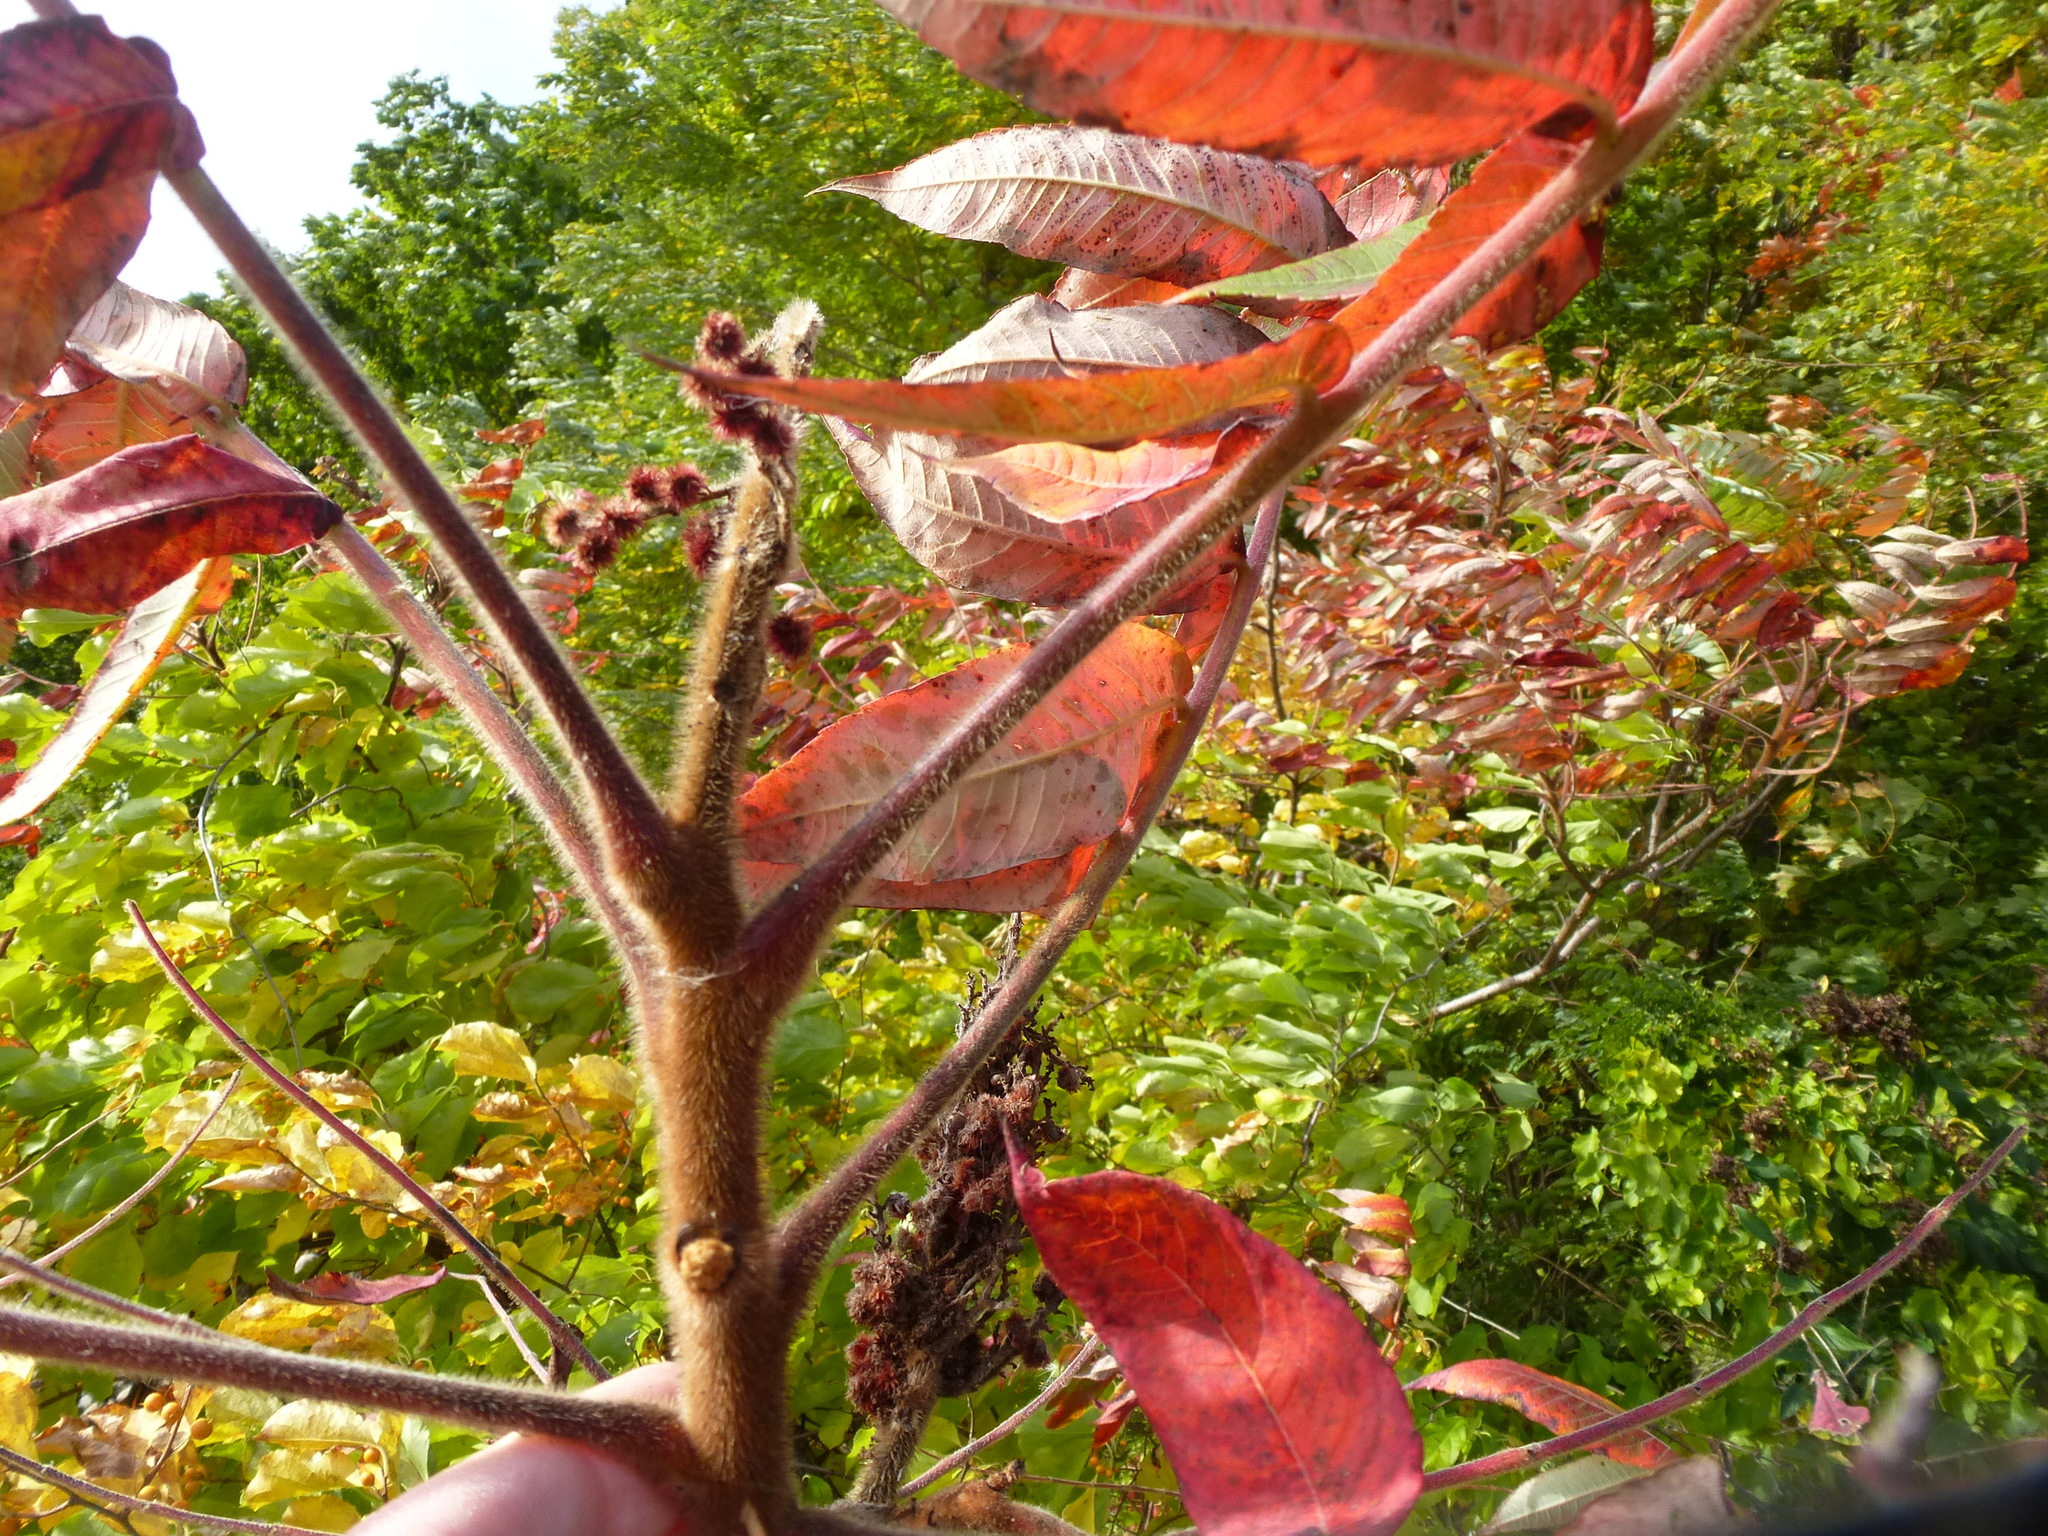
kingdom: Plantae
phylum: Tracheophyta
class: Magnoliopsida
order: Sapindales
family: Anacardiaceae
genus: Rhus
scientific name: Rhus typhina
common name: Staghorn sumac
